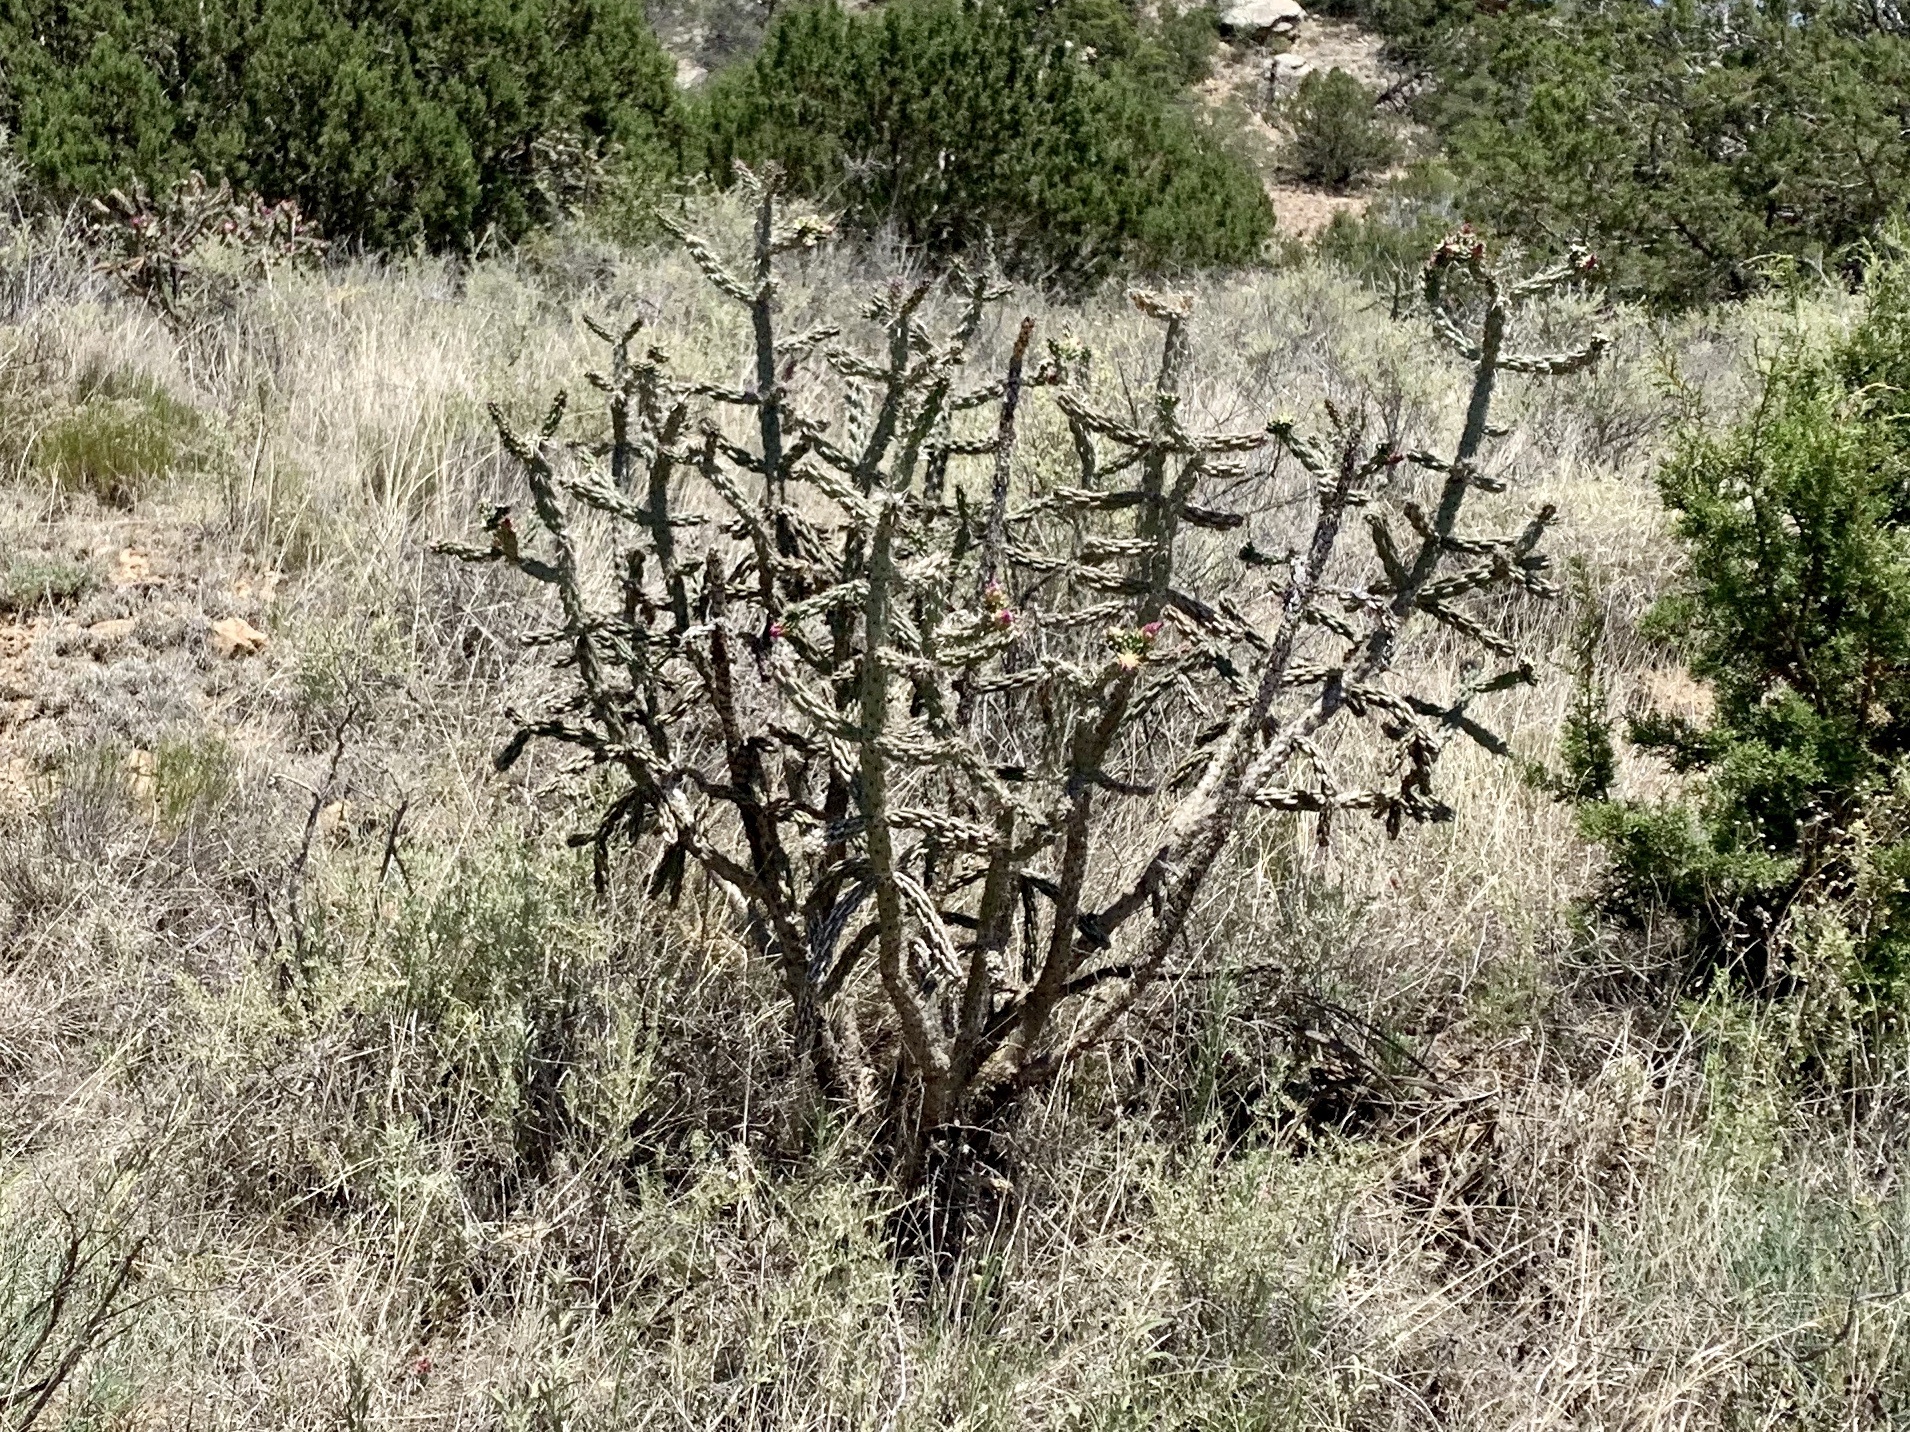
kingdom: Plantae
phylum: Tracheophyta
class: Magnoliopsida
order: Caryophyllales
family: Cactaceae
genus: Cylindropuntia
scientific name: Cylindropuntia imbricata
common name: Candelabrum cactus
